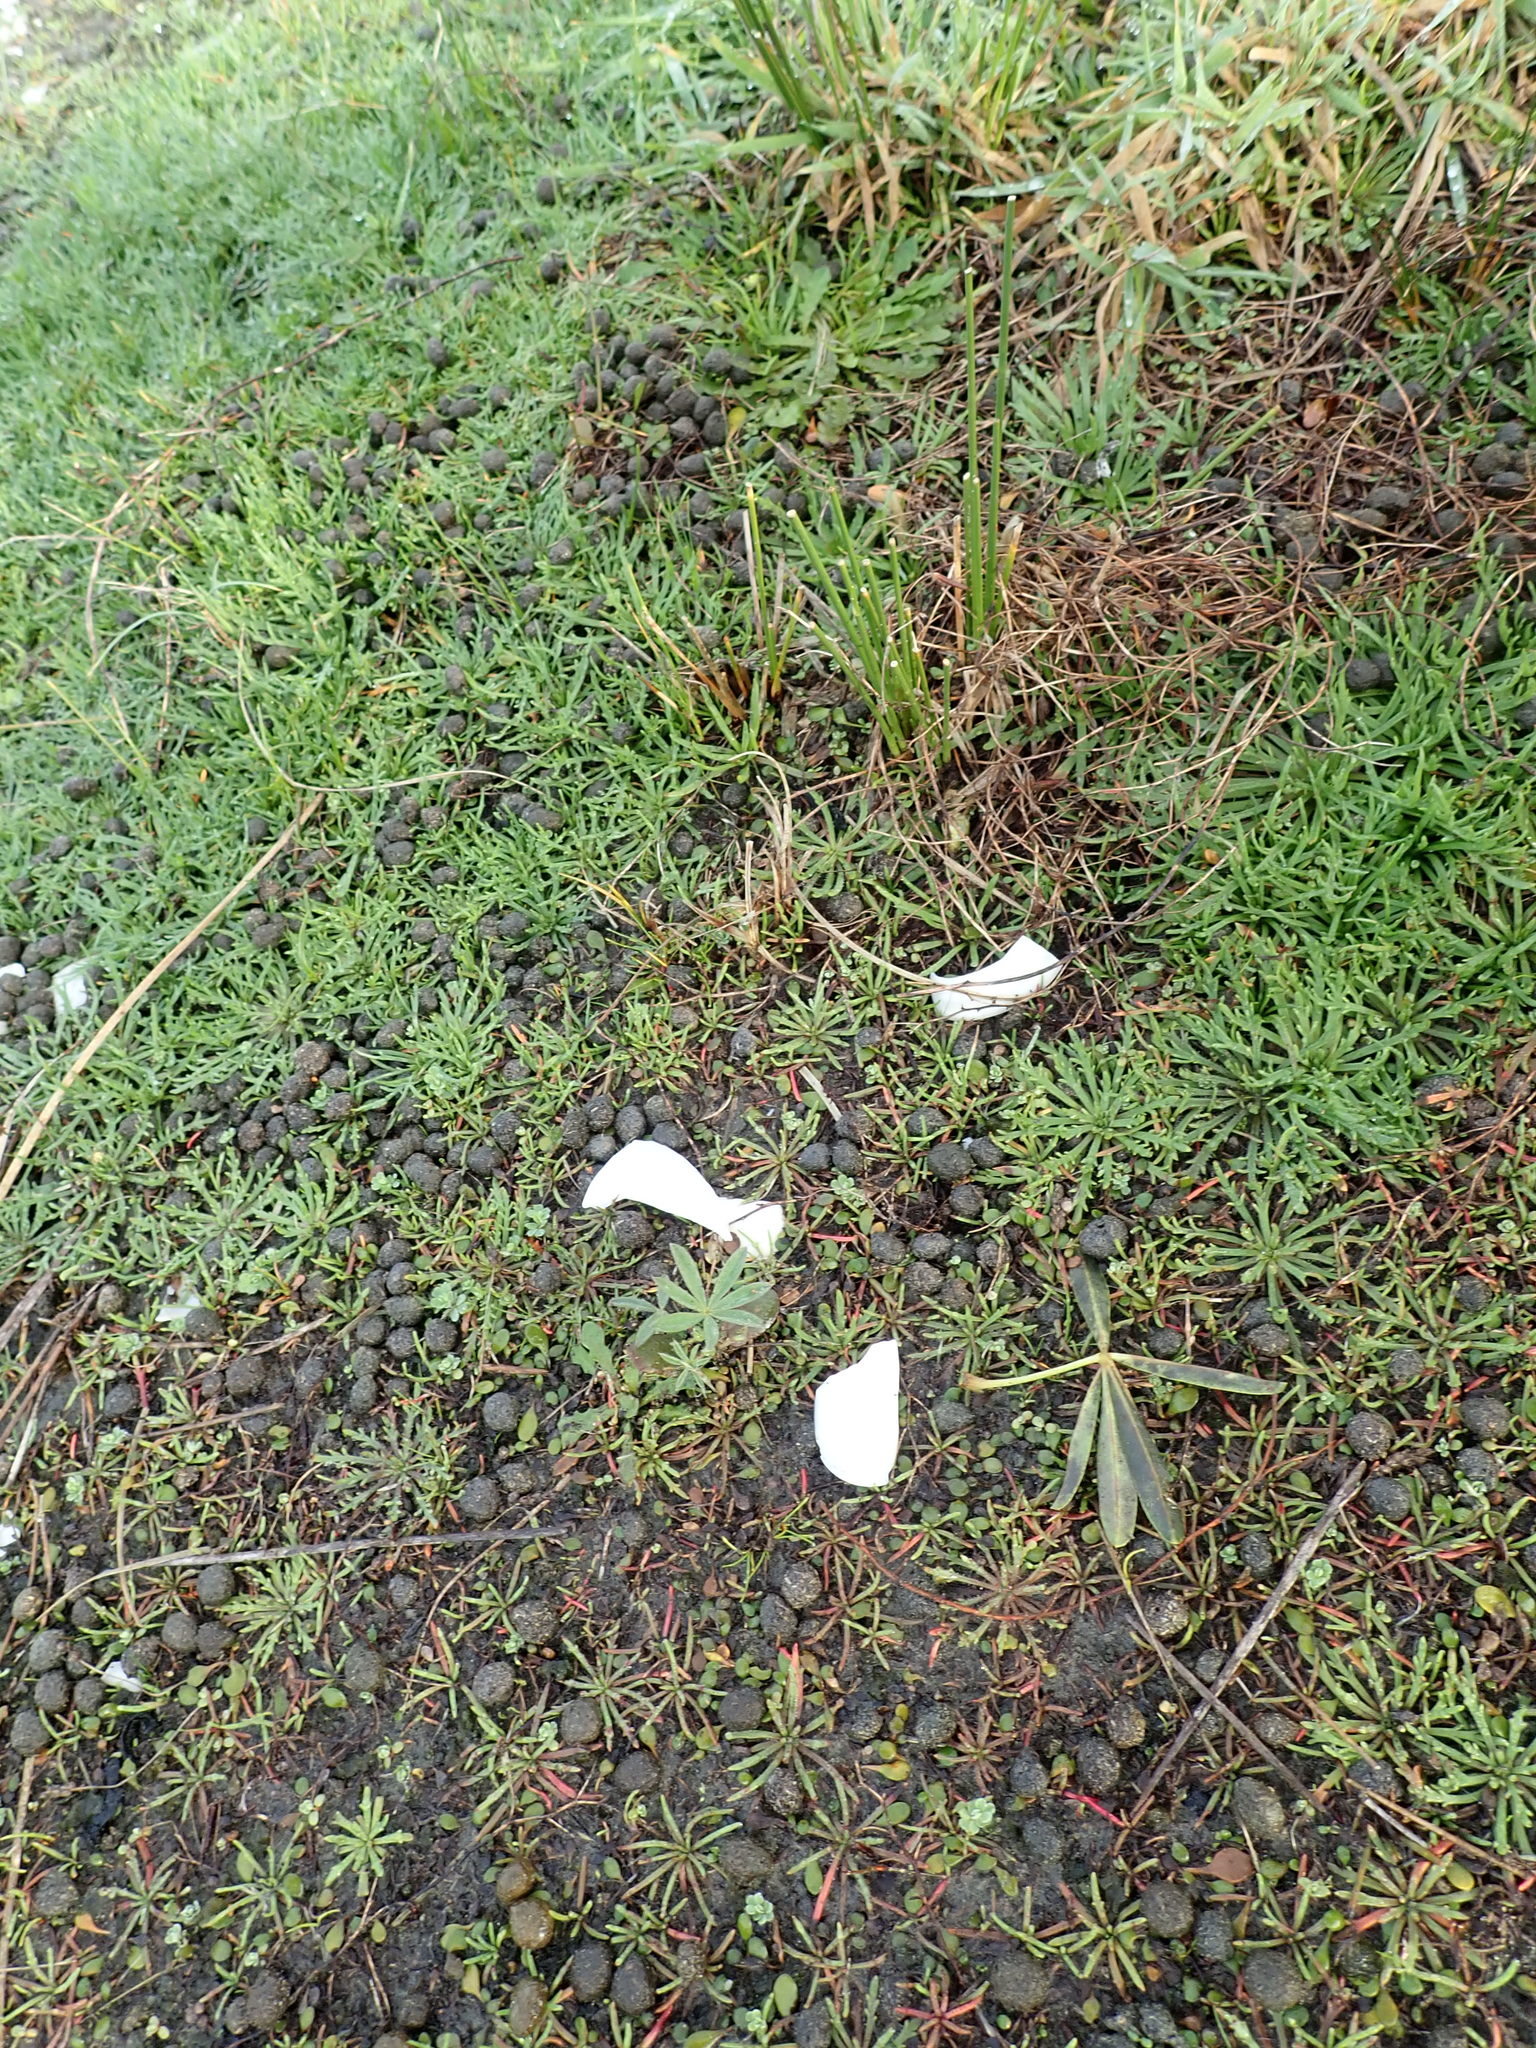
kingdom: Plantae
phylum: Tracheophyta
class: Magnoliopsida
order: Fabales
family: Fabaceae
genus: Lupinus
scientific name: Lupinus arboreus
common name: Yellow bush lupine
